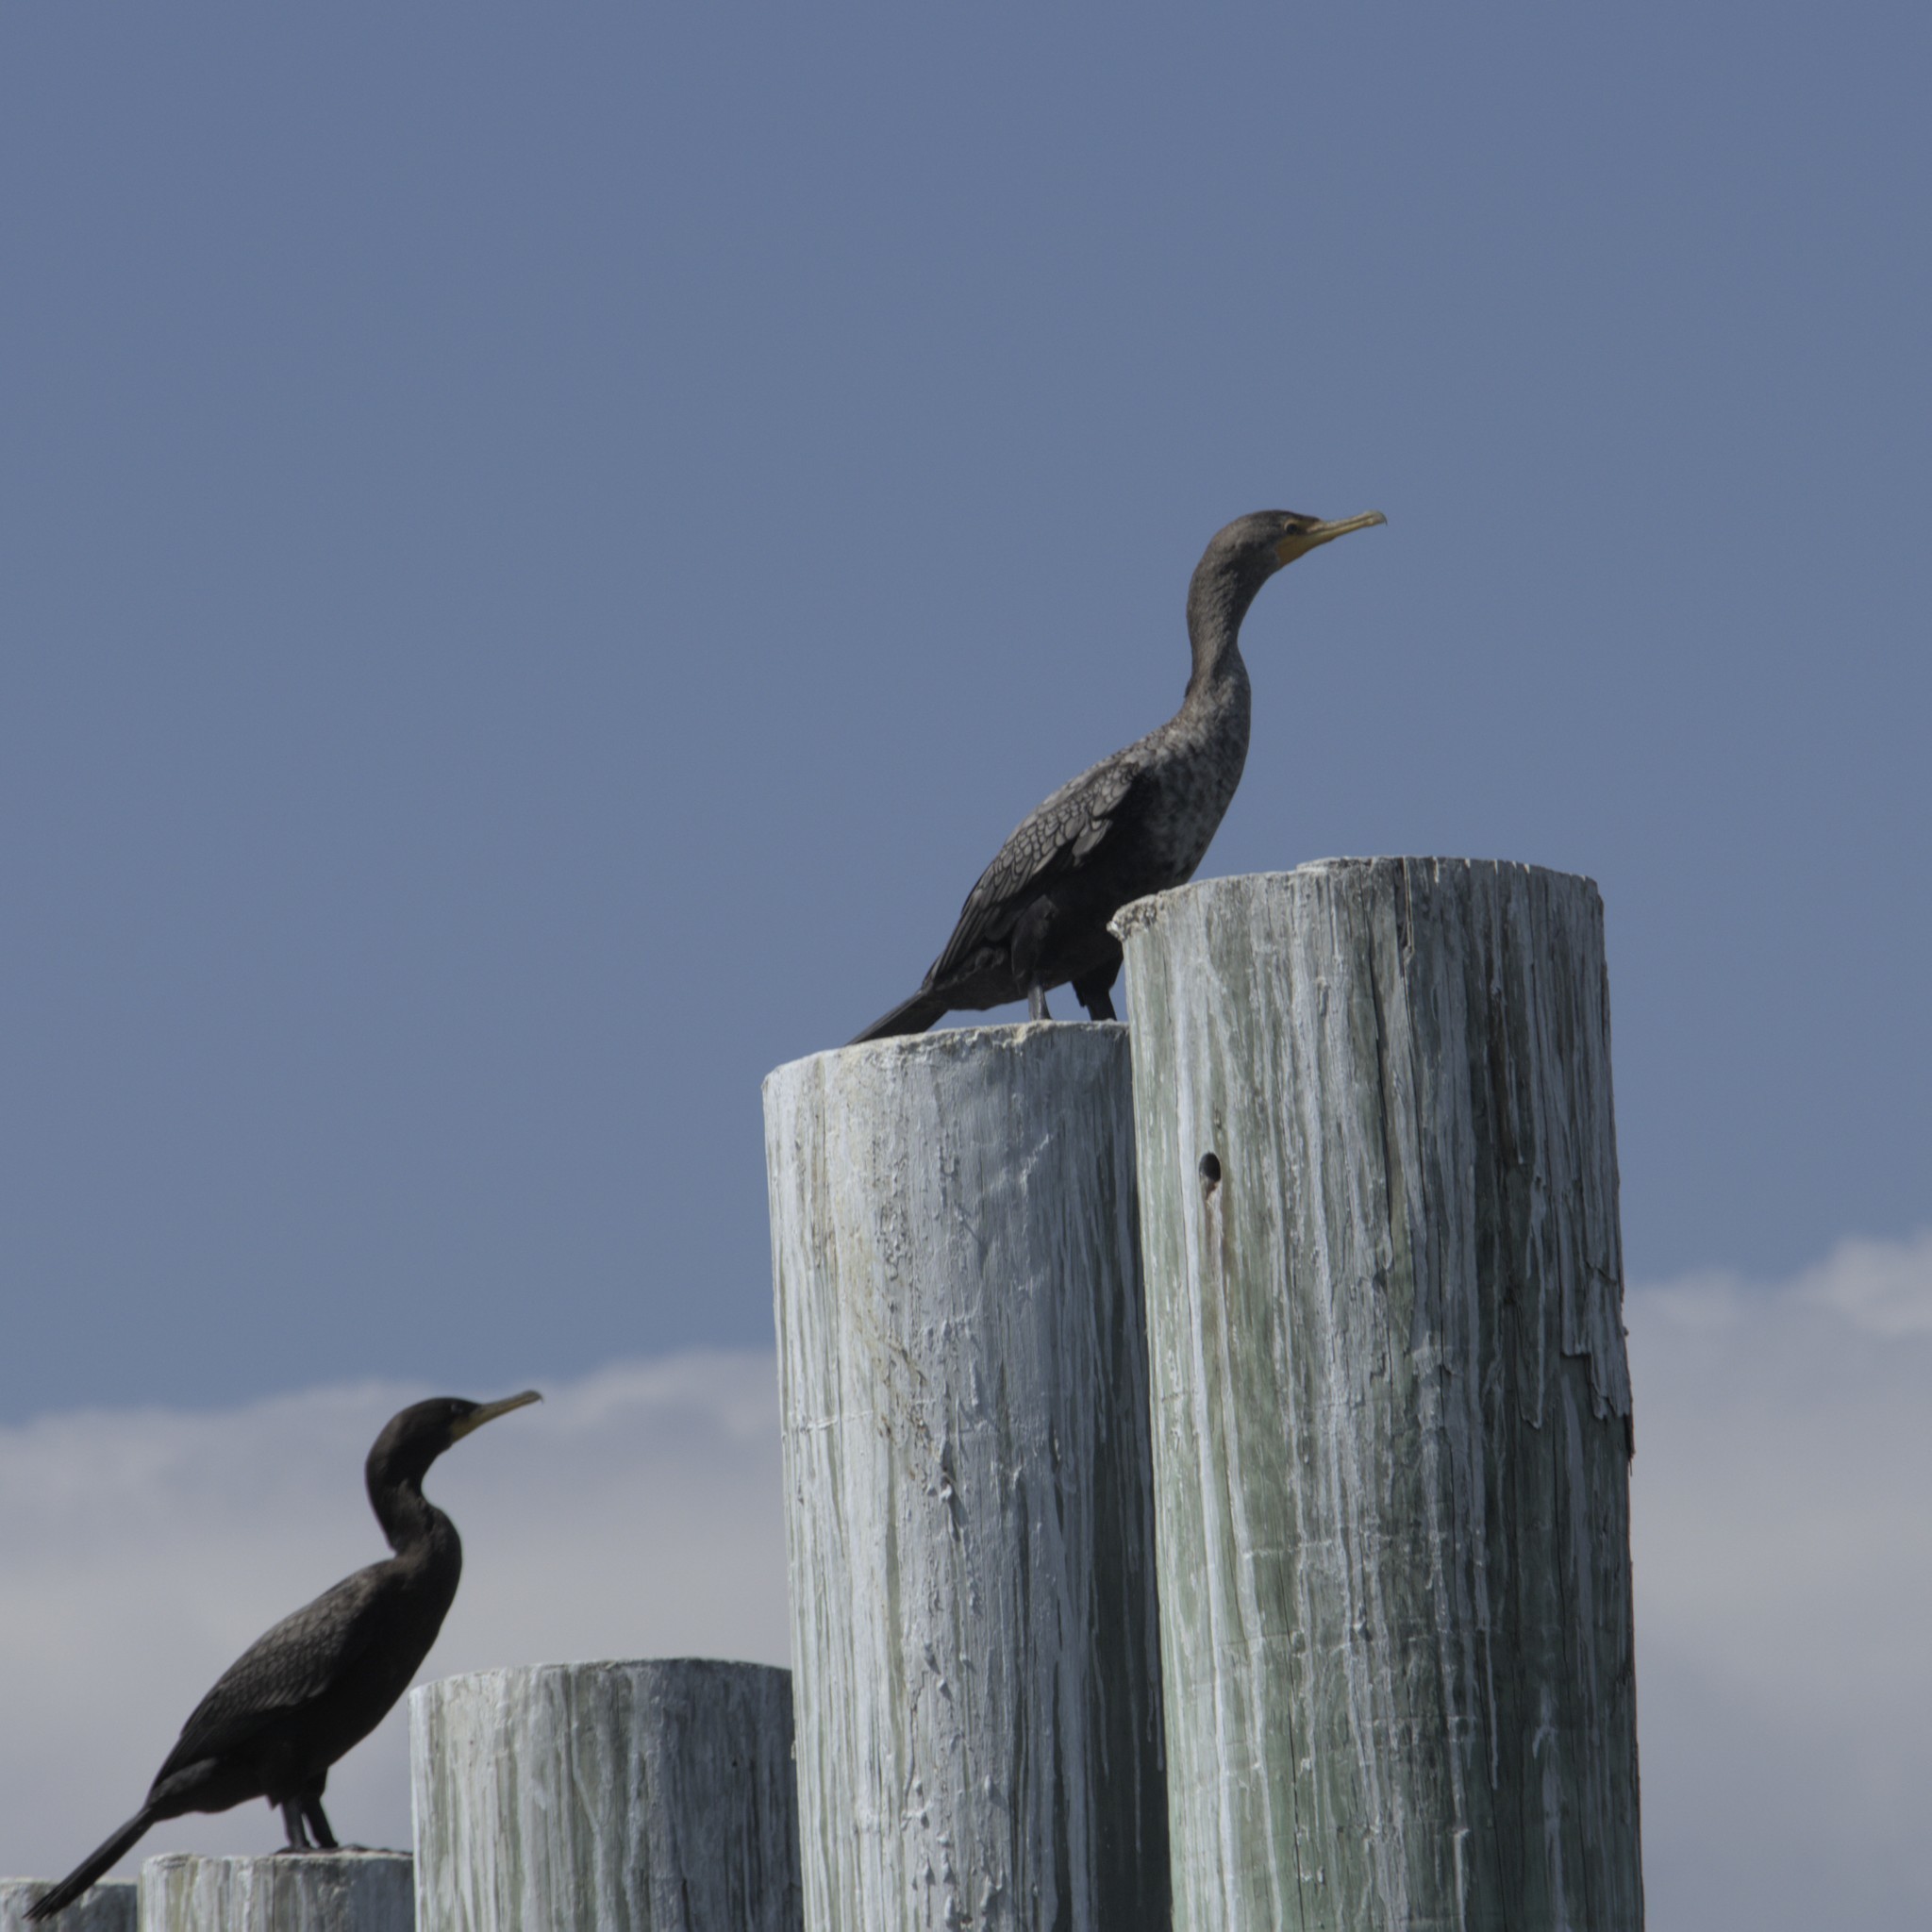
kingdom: Animalia
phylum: Chordata
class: Aves
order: Suliformes
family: Phalacrocoracidae
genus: Phalacrocorax
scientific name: Phalacrocorax auritus
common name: Double-crested cormorant
